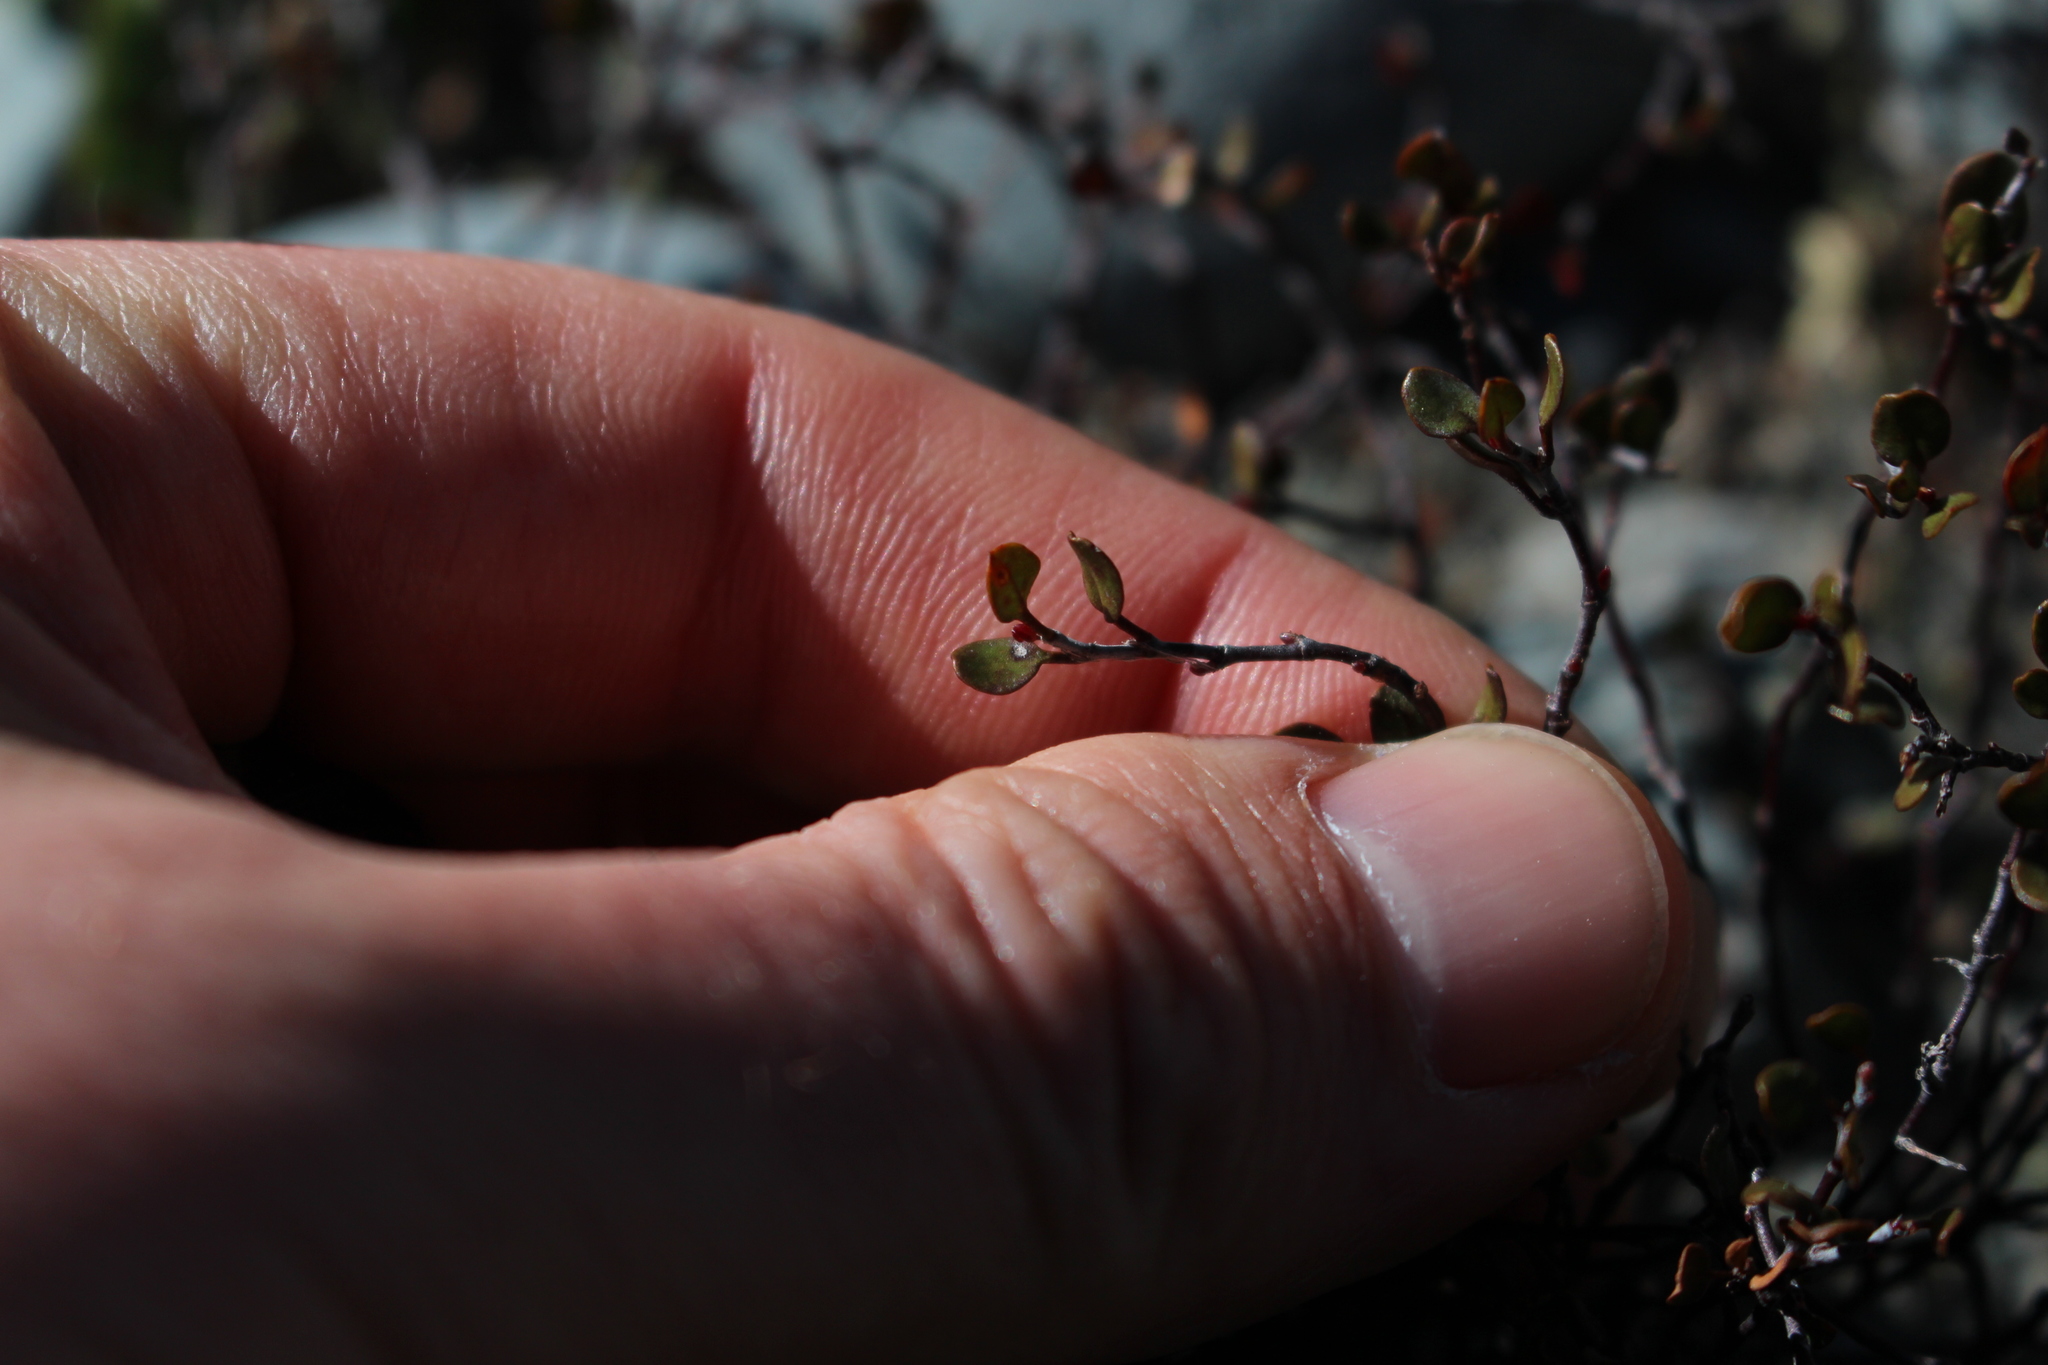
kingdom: Plantae
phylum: Tracheophyta
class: Magnoliopsida
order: Caryophyllales
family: Polygonaceae
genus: Muehlenbeckia
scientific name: Muehlenbeckia axillaris
